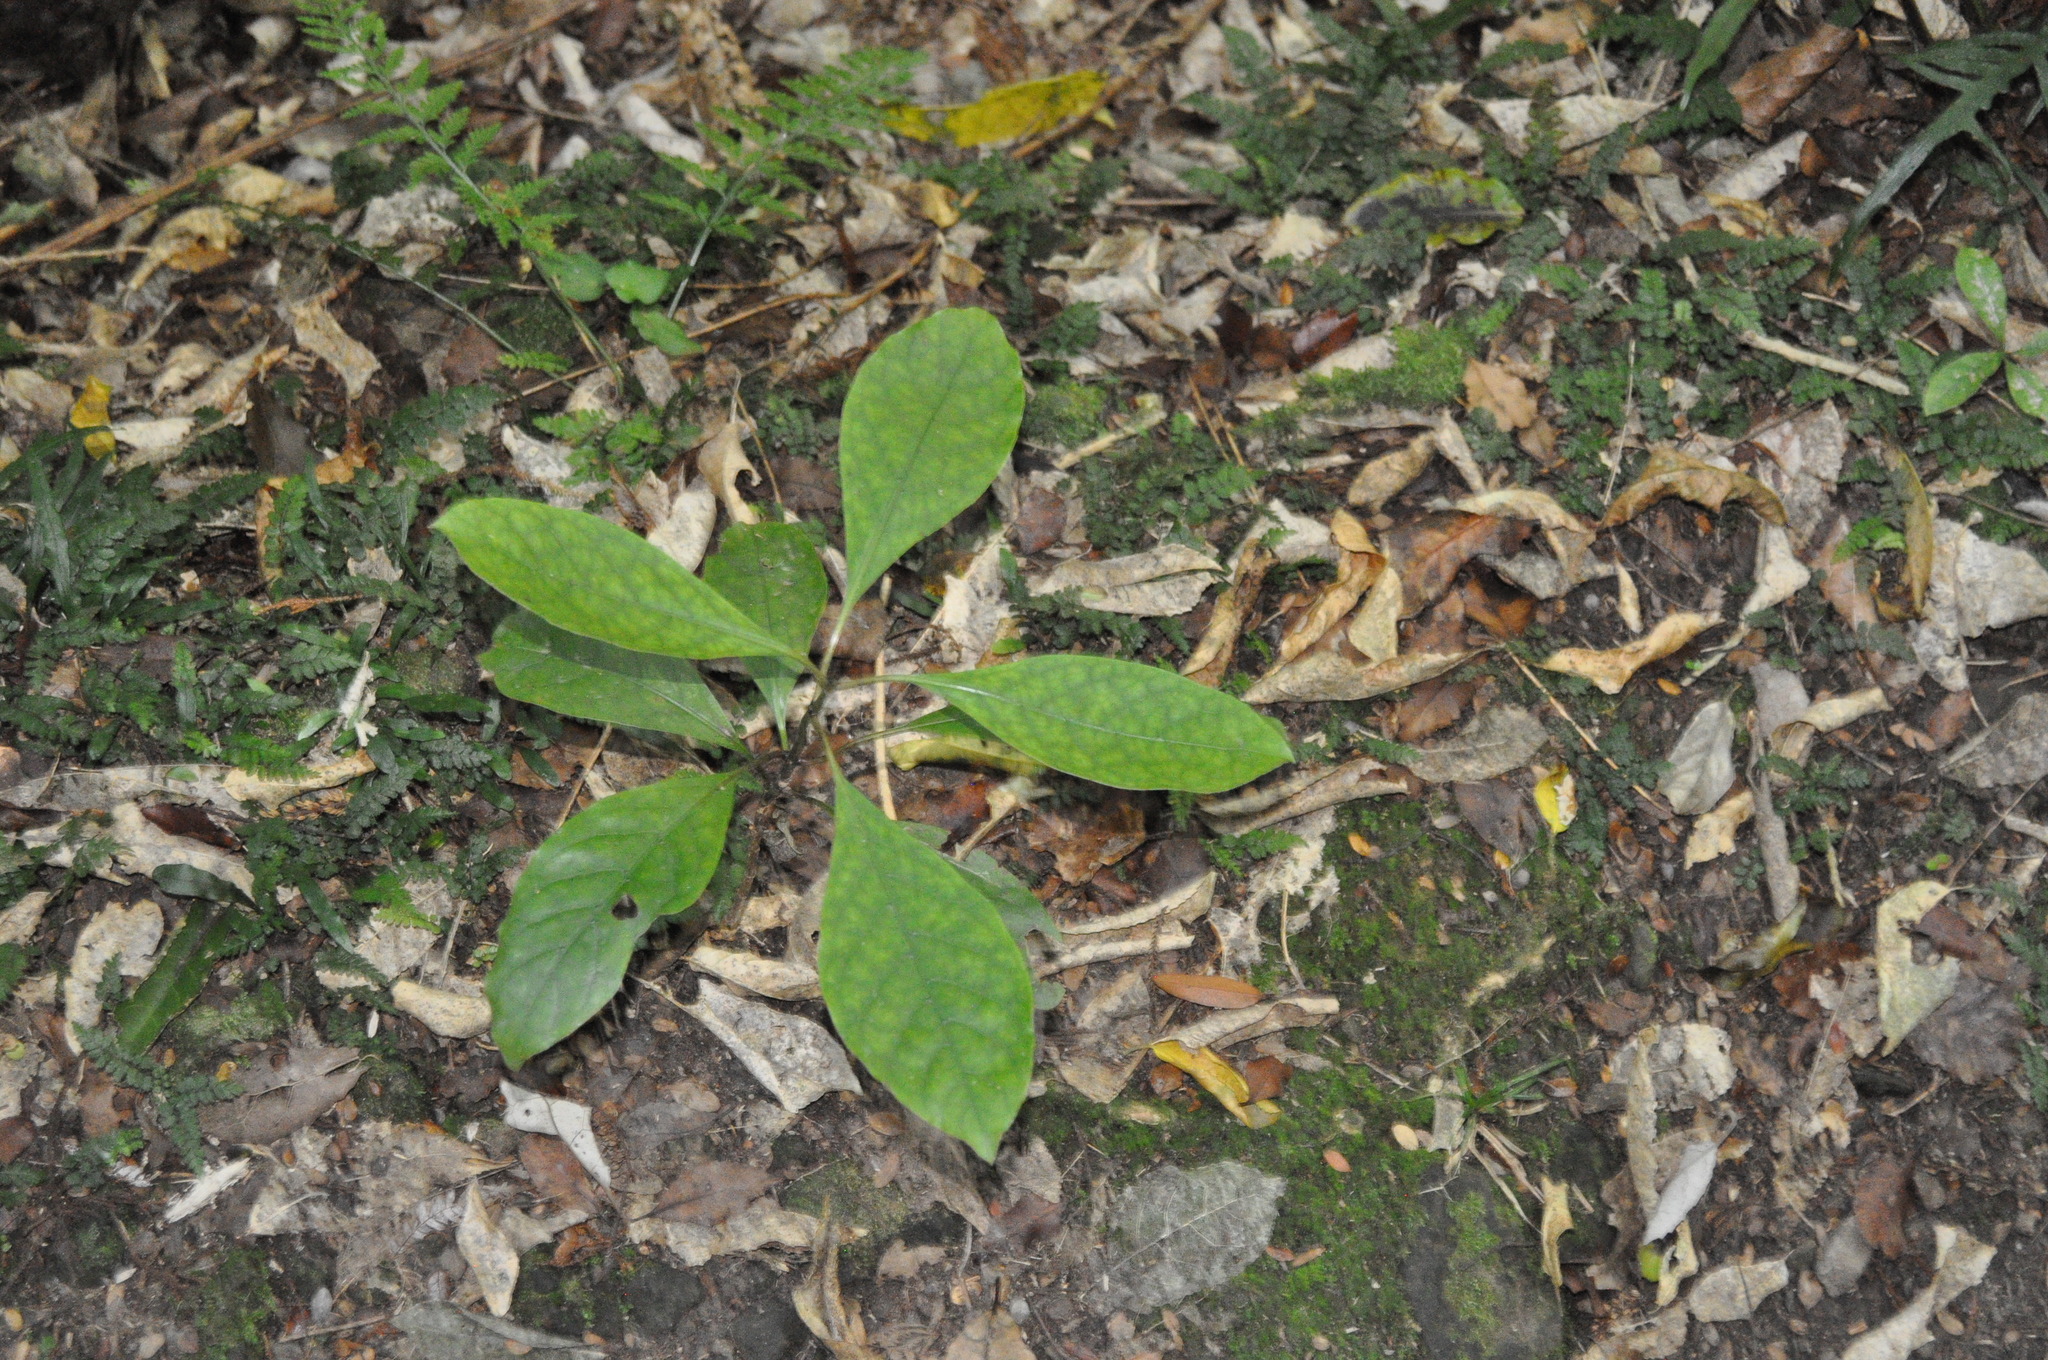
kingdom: Plantae
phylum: Tracheophyta
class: Magnoliopsida
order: Gentianales
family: Rubiaceae
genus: Coprosma
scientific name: Coprosma autumnalis
